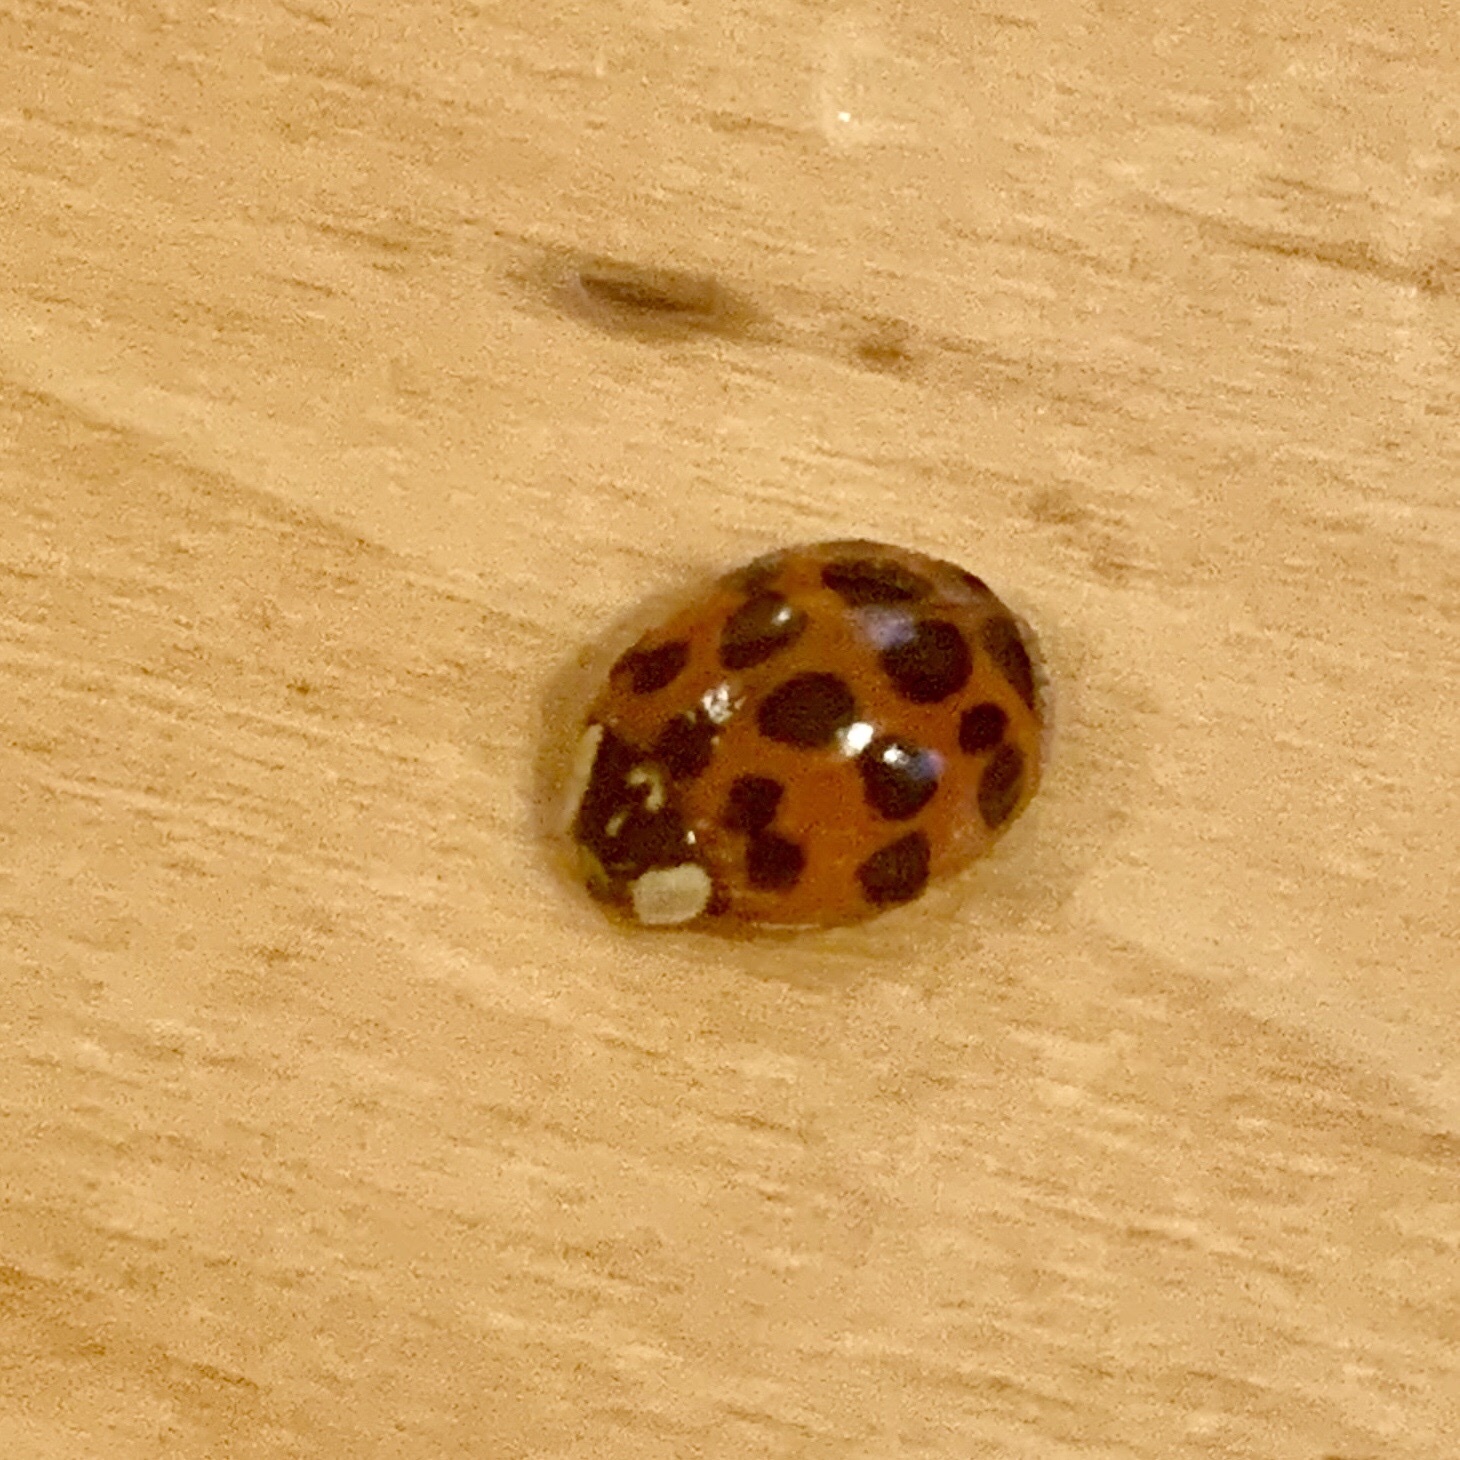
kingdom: Animalia
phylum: Arthropoda
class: Insecta
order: Coleoptera
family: Coccinellidae
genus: Harmonia
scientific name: Harmonia axyridis
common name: Harlequin ladybird
